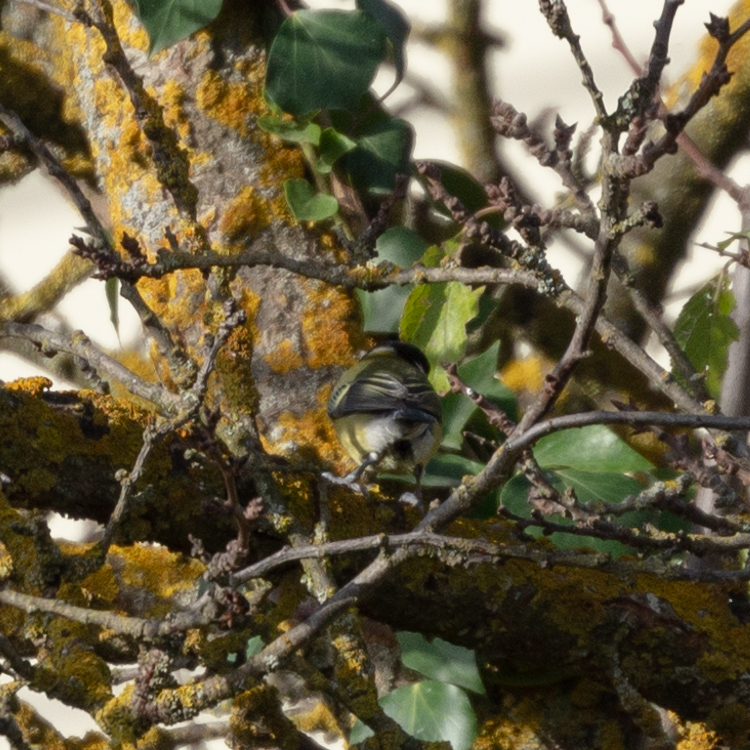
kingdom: Animalia
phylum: Chordata
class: Aves
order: Passeriformes
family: Paridae
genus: Parus
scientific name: Parus major
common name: Great tit
